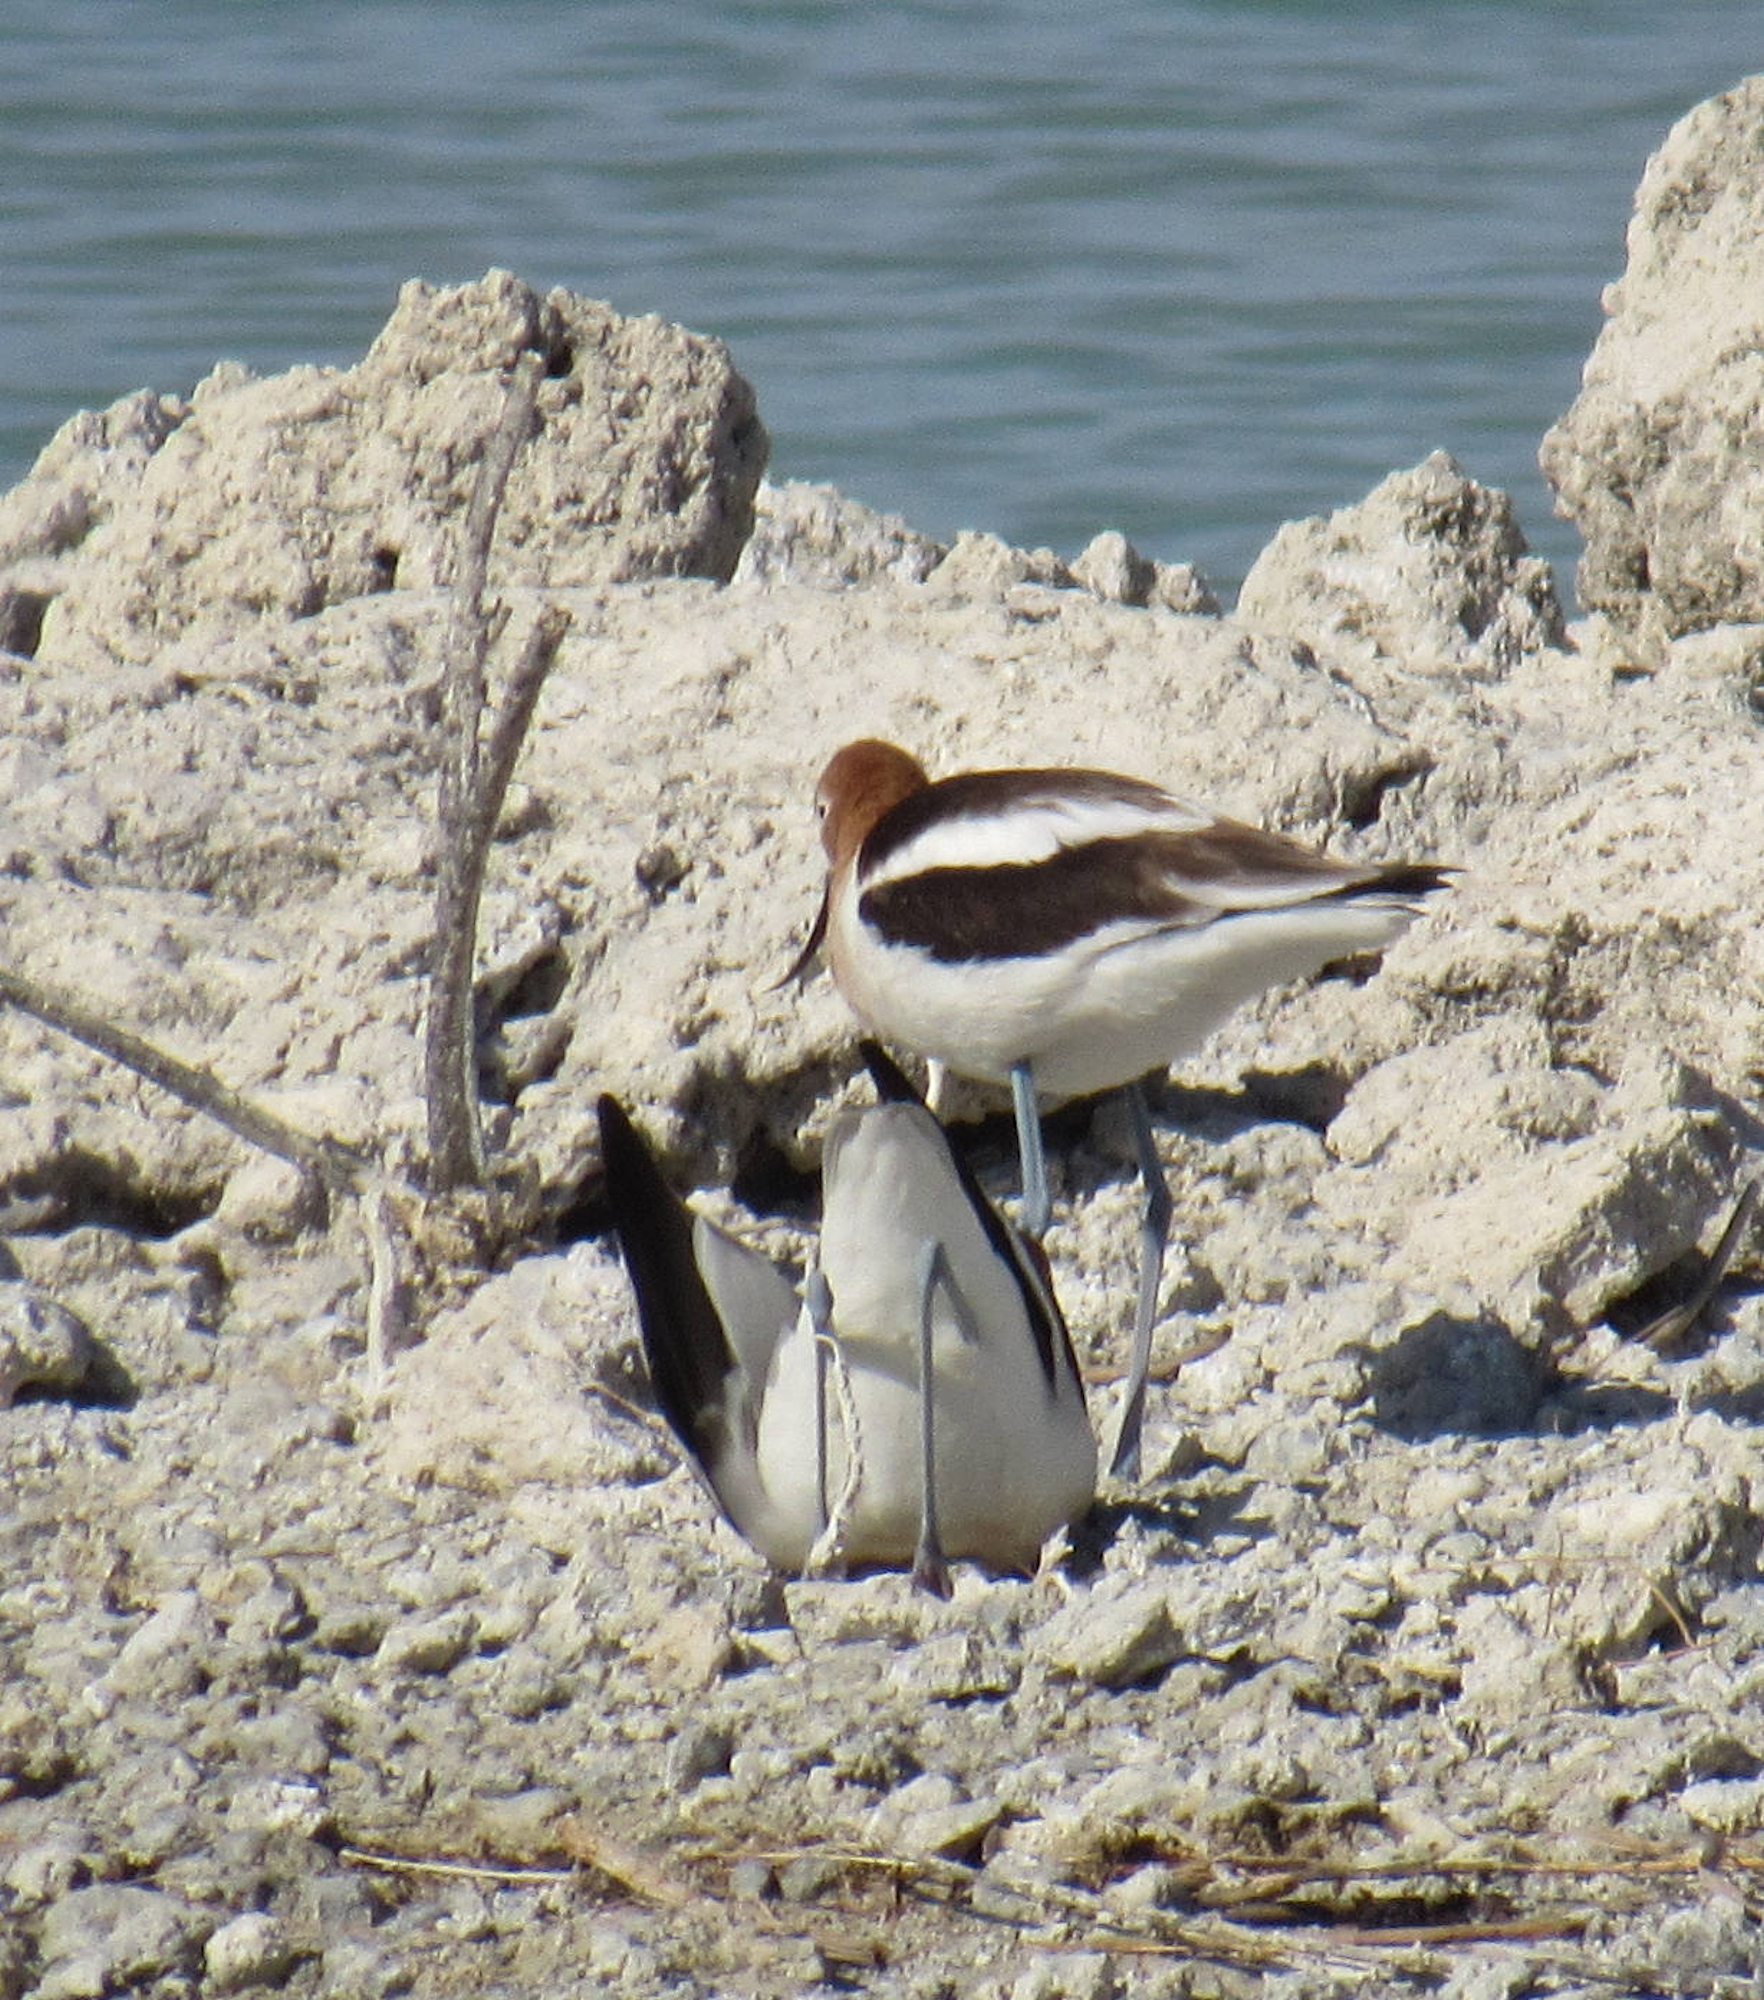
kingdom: Animalia
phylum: Chordata
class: Aves
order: Charadriiformes
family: Recurvirostridae
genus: Recurvirostra
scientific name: Recurvirostra americana
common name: American avocet
